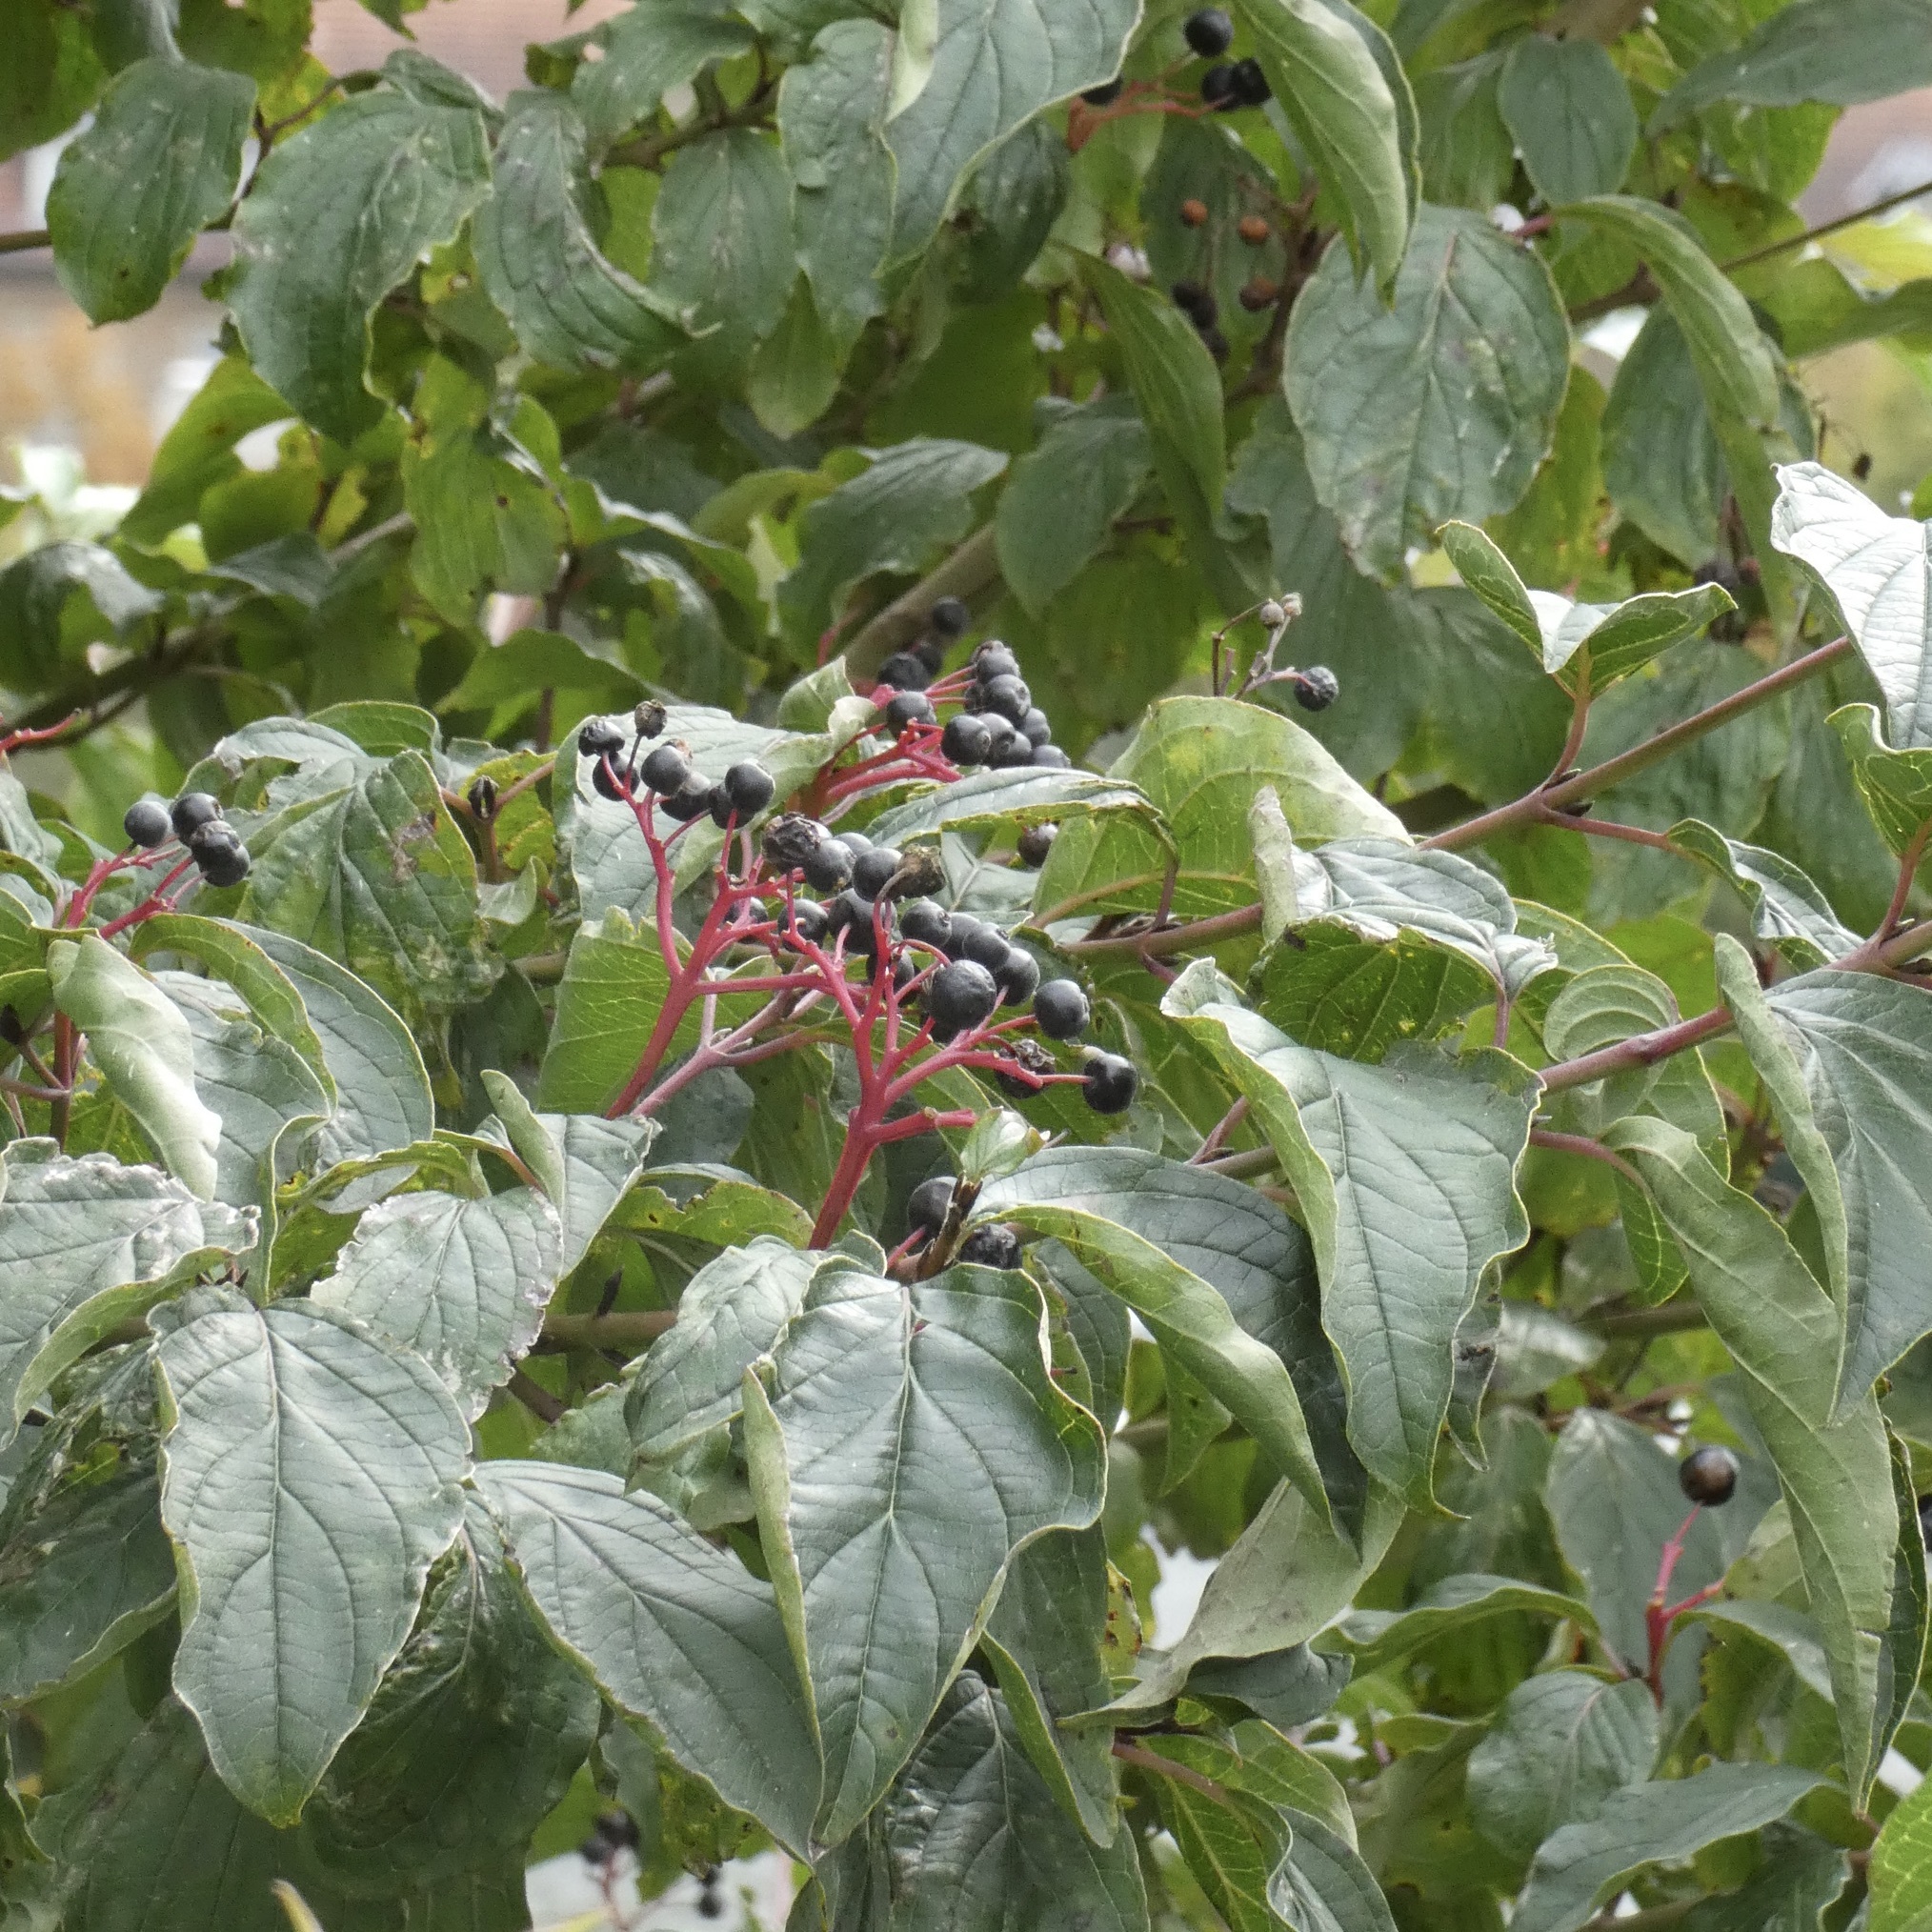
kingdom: Plantae
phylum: Tracheophyta
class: Magnoliopsida
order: Cornales
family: Cornaceae
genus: Cornus
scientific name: Cornus sanguinea
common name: Dogwood
